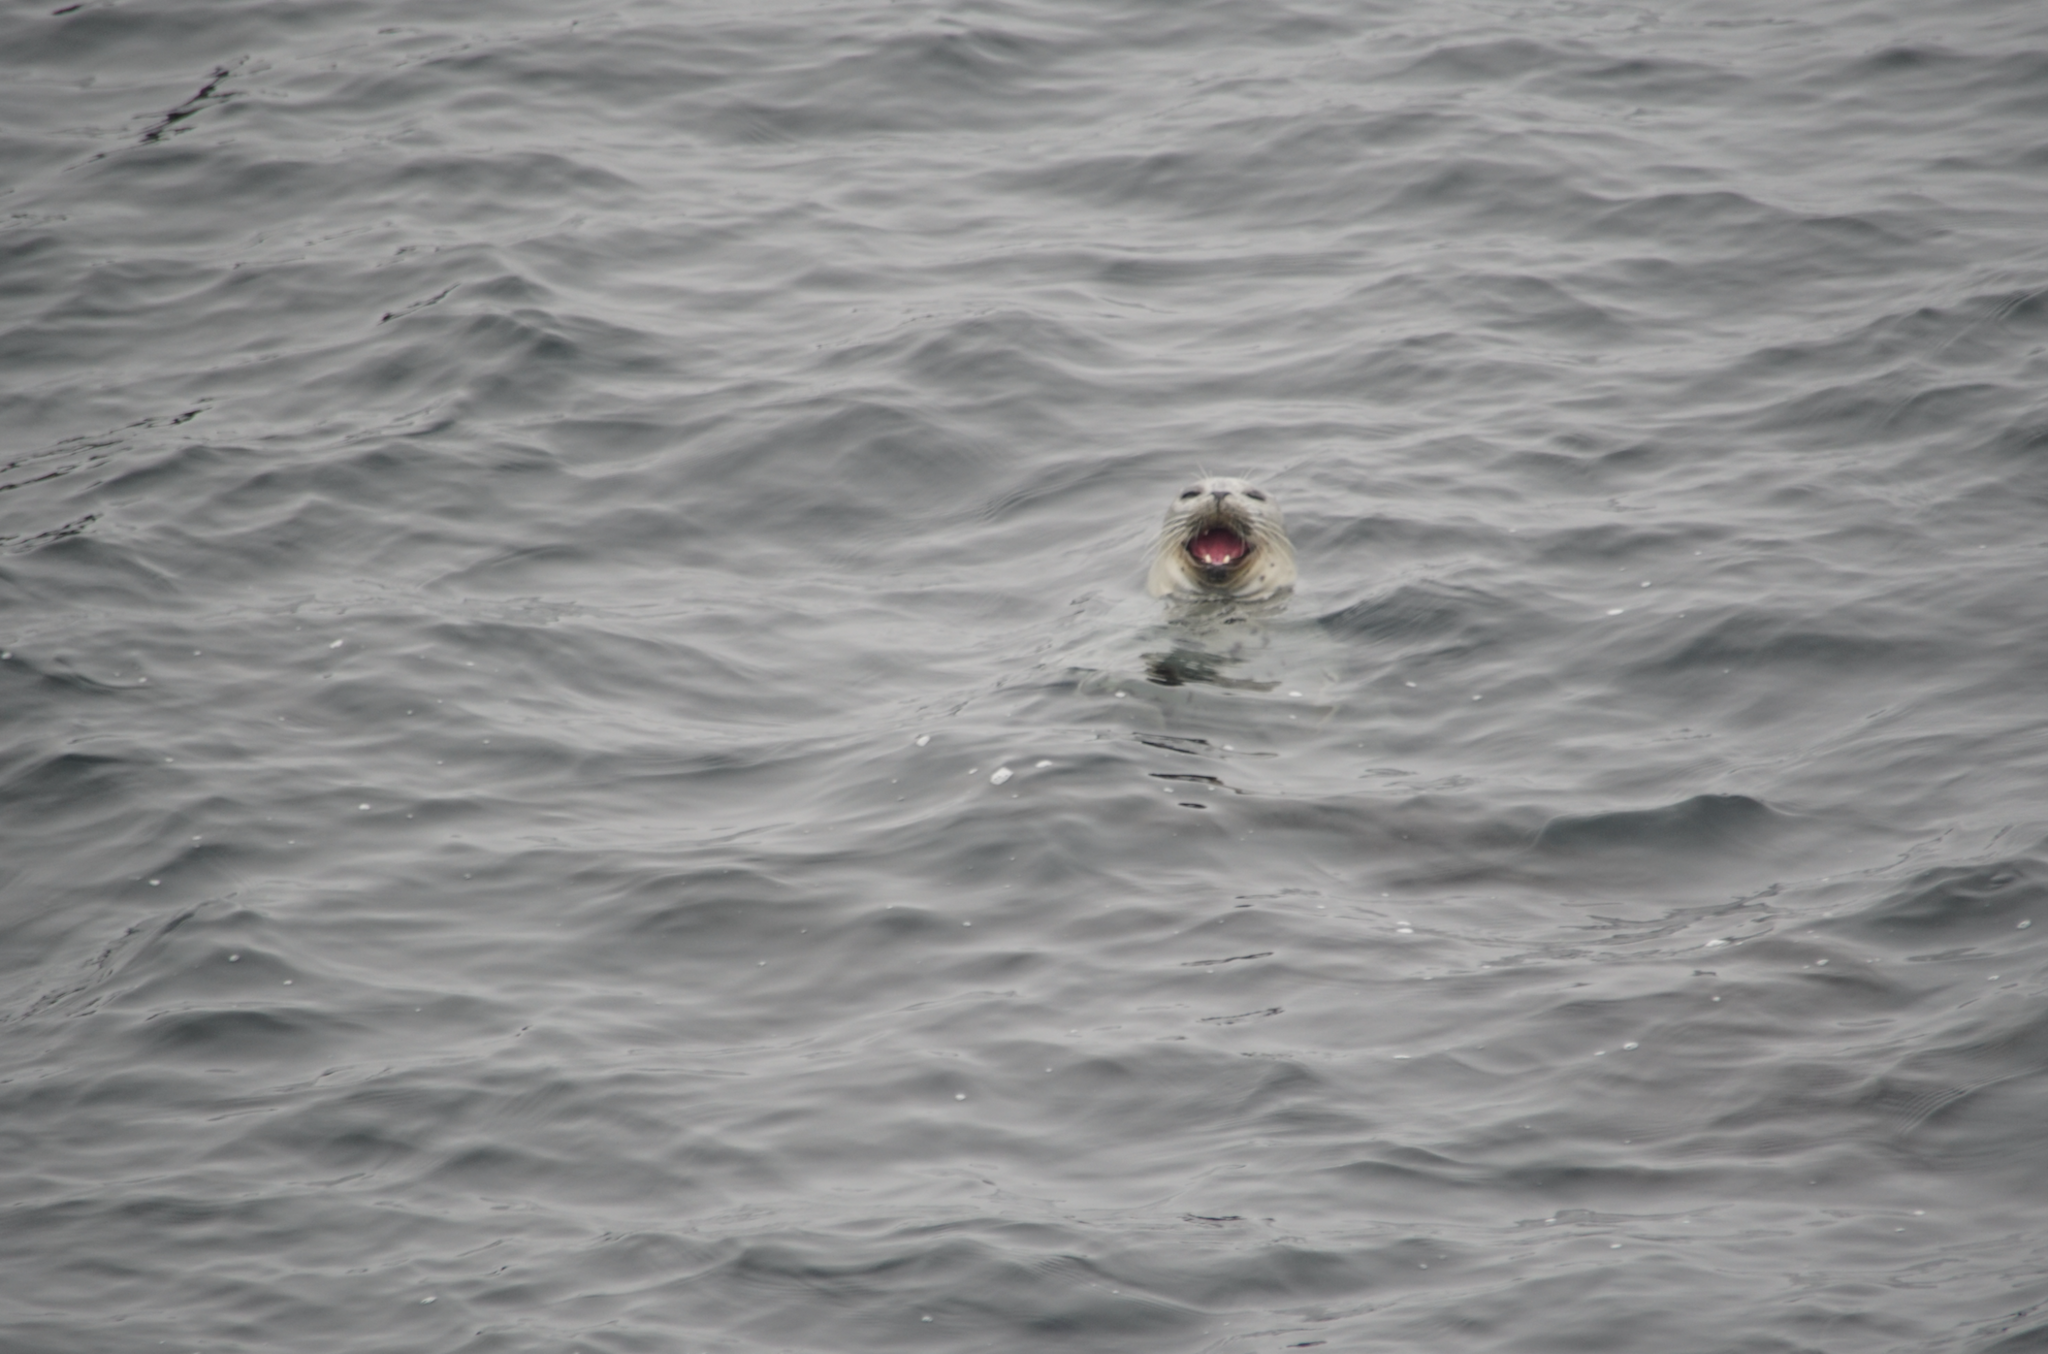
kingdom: Animalia
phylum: Chordata
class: Mammalia
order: Carnivora
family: Phocidae
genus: Phoca
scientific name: Phoca vitulina
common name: Harbor seal
